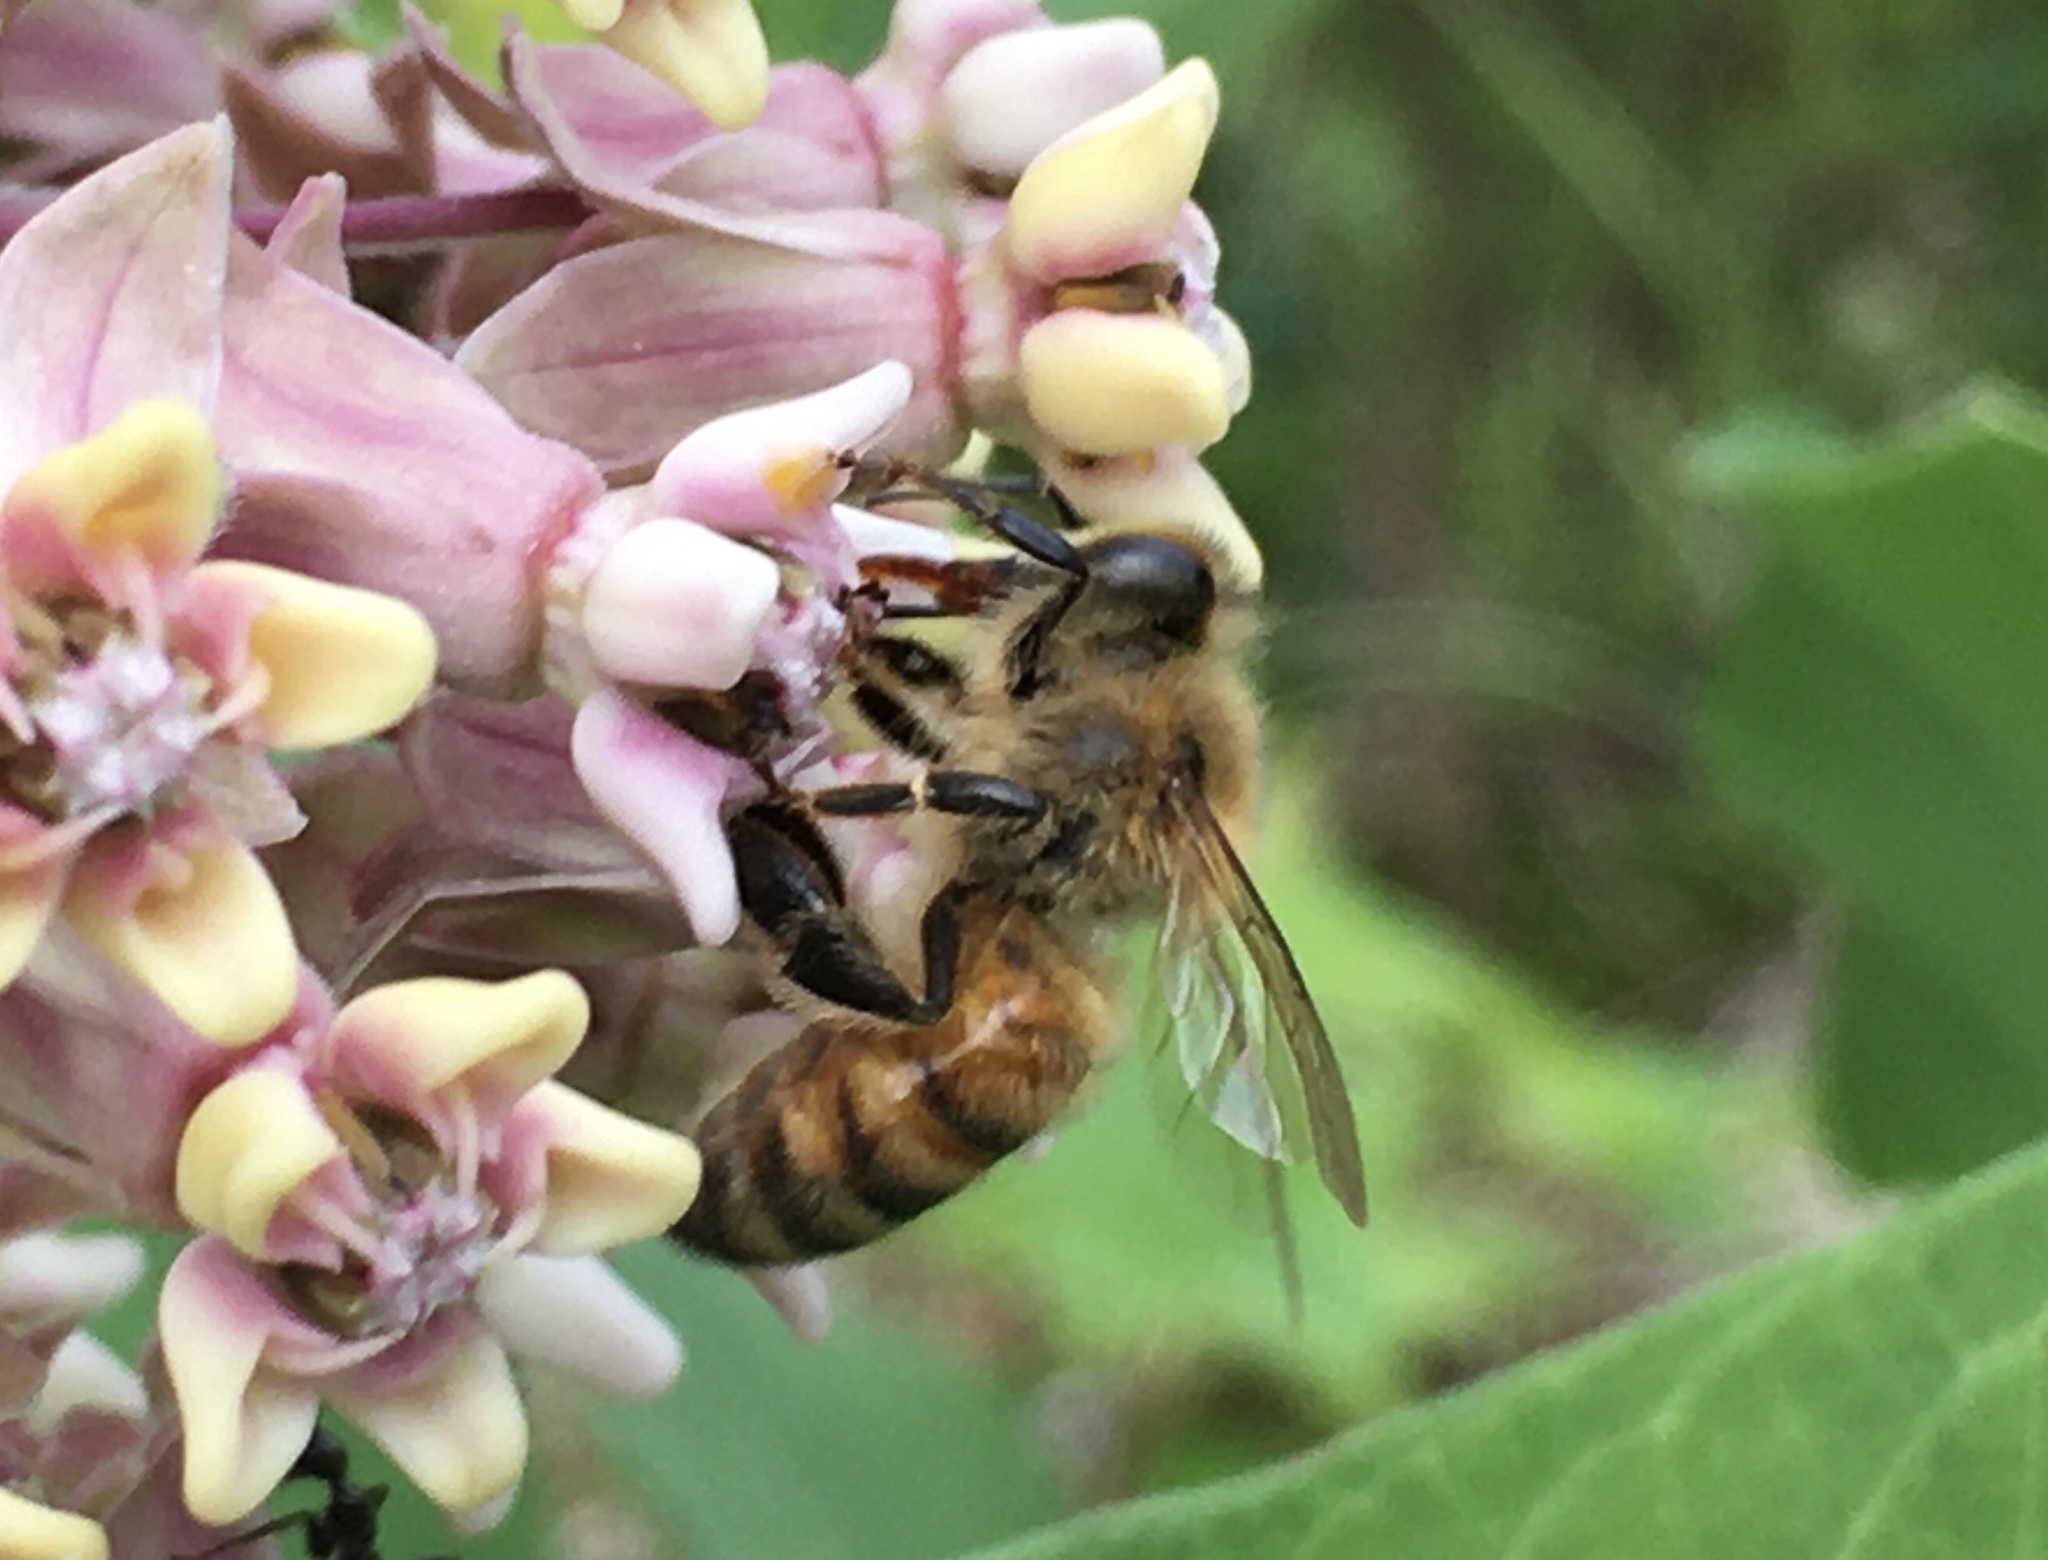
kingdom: Animalia
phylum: Arthropoda
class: Insecta
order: Hymenoptera
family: Apidae
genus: Apis
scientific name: Apis mellifera
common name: Honey bee
